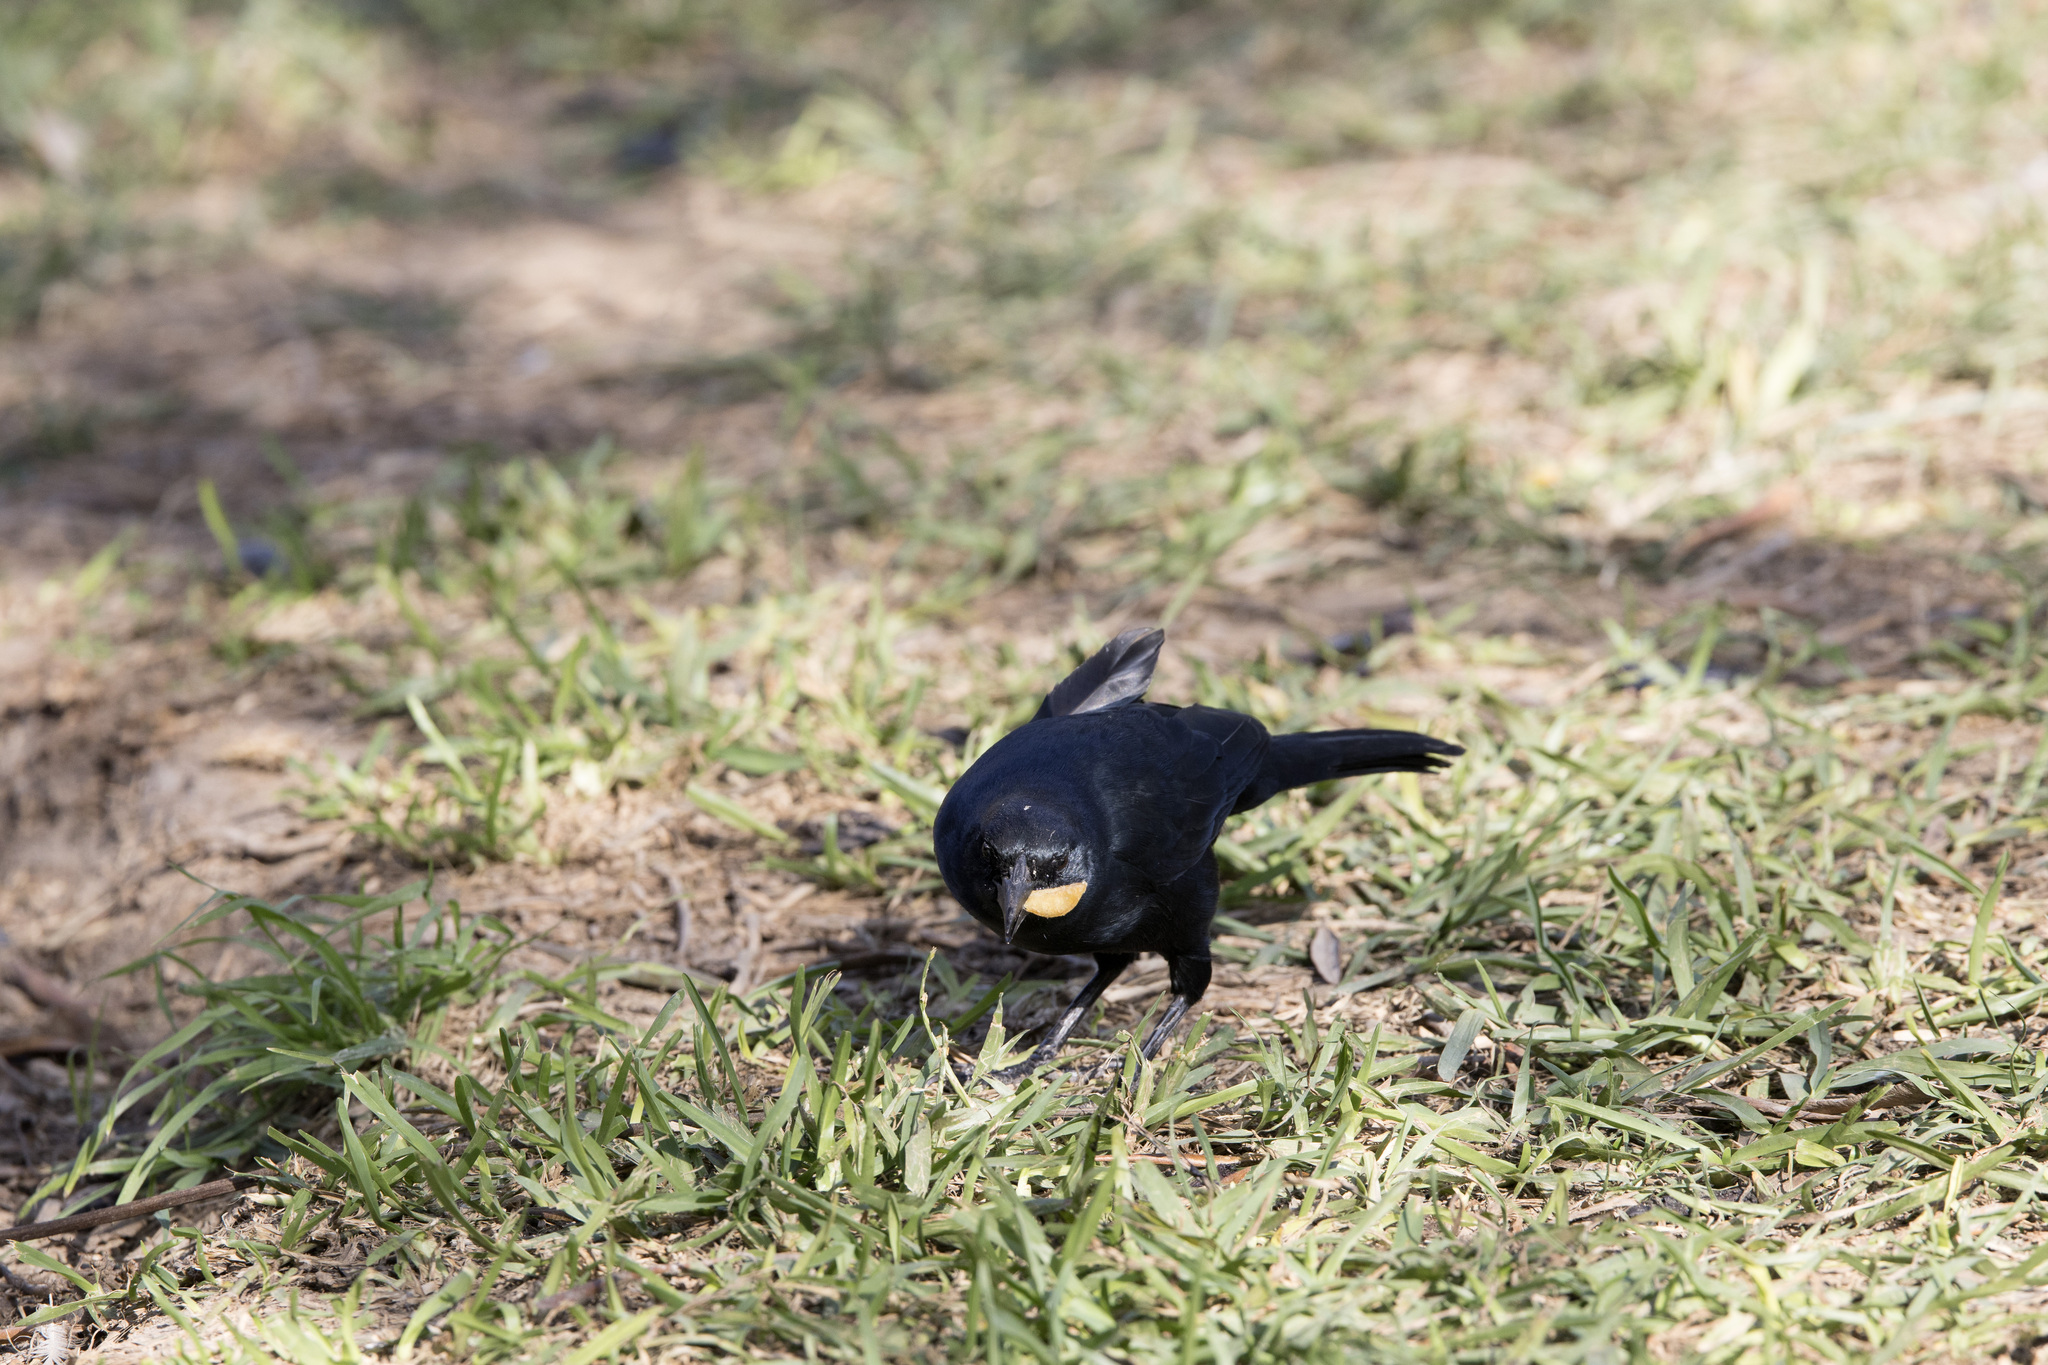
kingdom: Animalia
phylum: Chordata
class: Aves
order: Passeriformes
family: Icteridae
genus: Dives
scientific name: Dives warczewiczi
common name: Scrub blackbird
